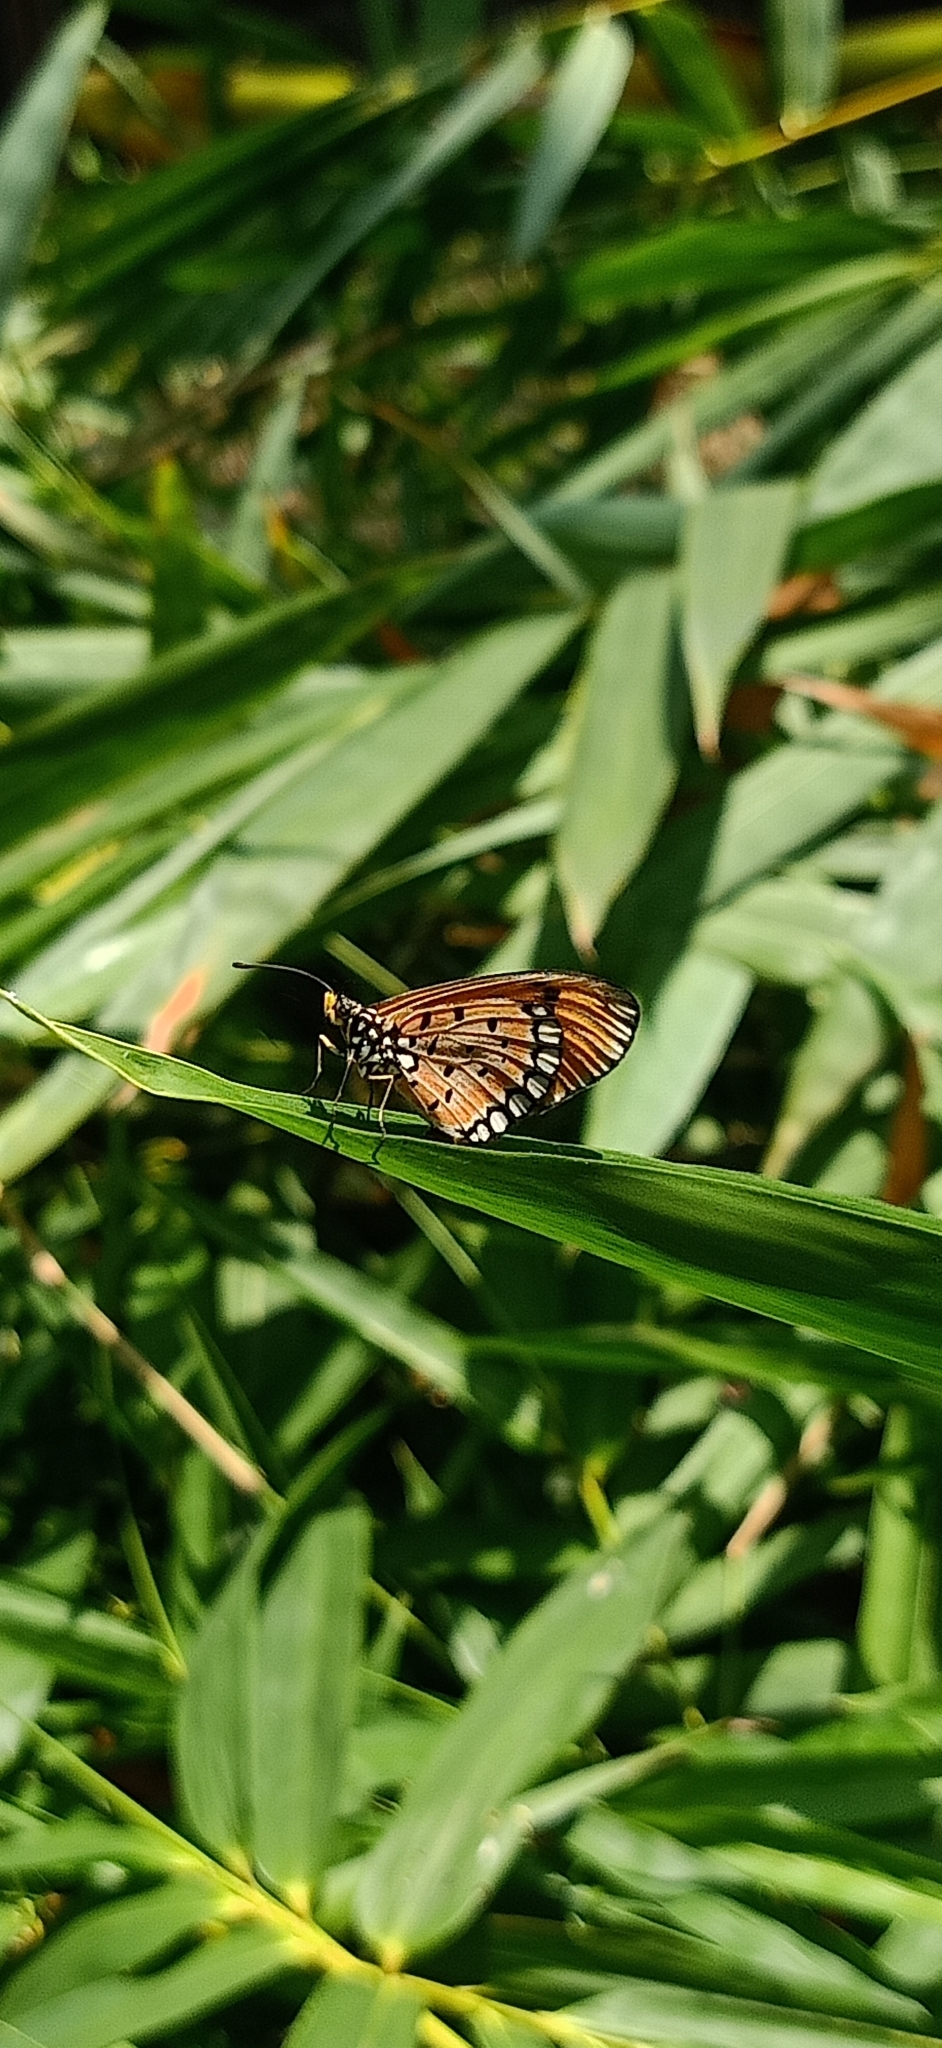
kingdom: Animalia
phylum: Arthropoda
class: Insecta
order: Lepidoptera
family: Nymphalidae
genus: Acraea
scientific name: Acraea terpsicore
